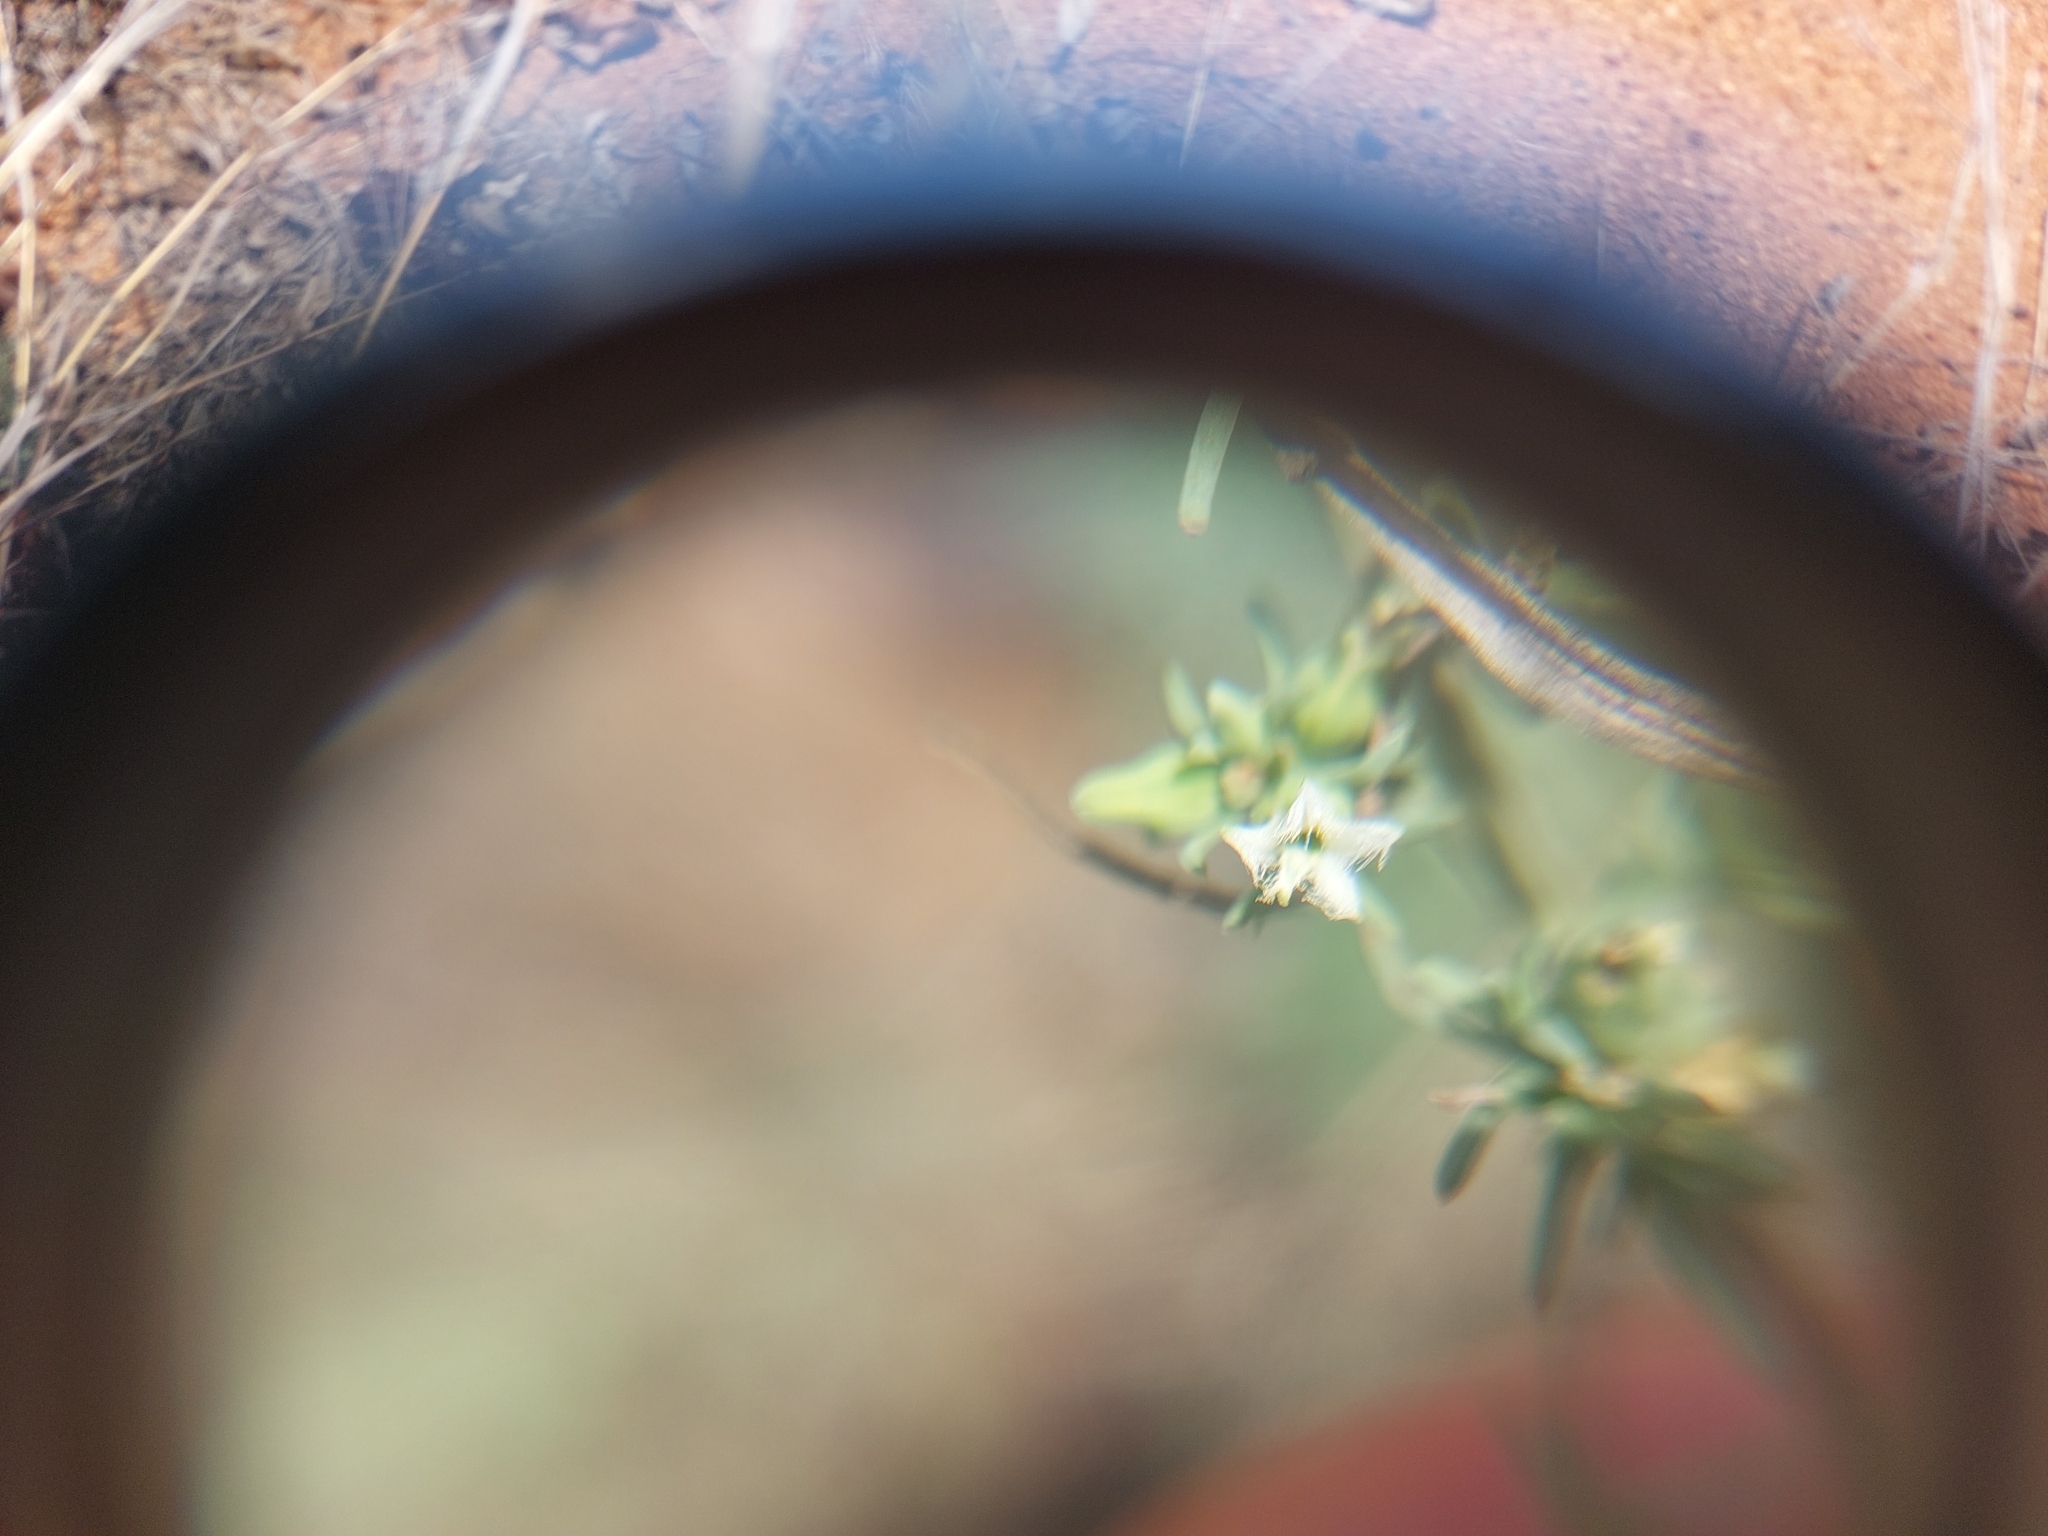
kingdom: Plantae
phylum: Tracheophyta
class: Magnoliopsida
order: Santalales
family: Thesiaceae
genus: Thesium
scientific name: Thesium celatum
